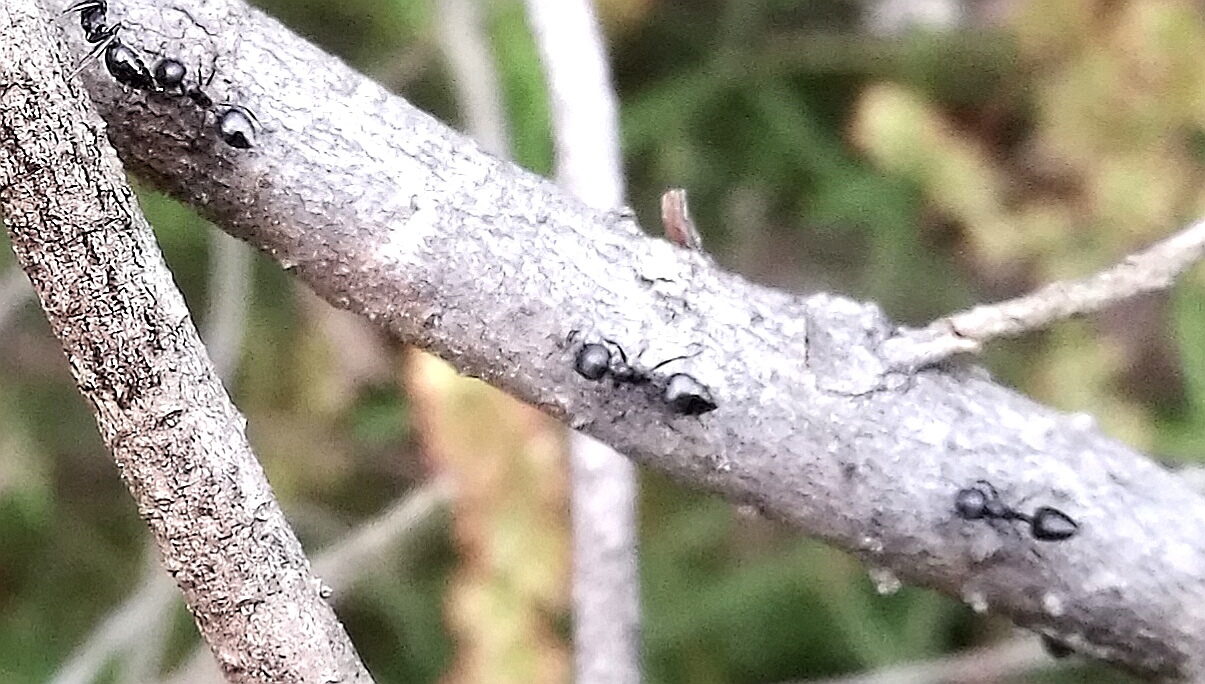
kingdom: Animalia
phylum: Arthropoda
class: Insecta
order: Hymenoptera
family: Formicidae
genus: Crematogaster
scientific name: Crematogaster peringueyi
